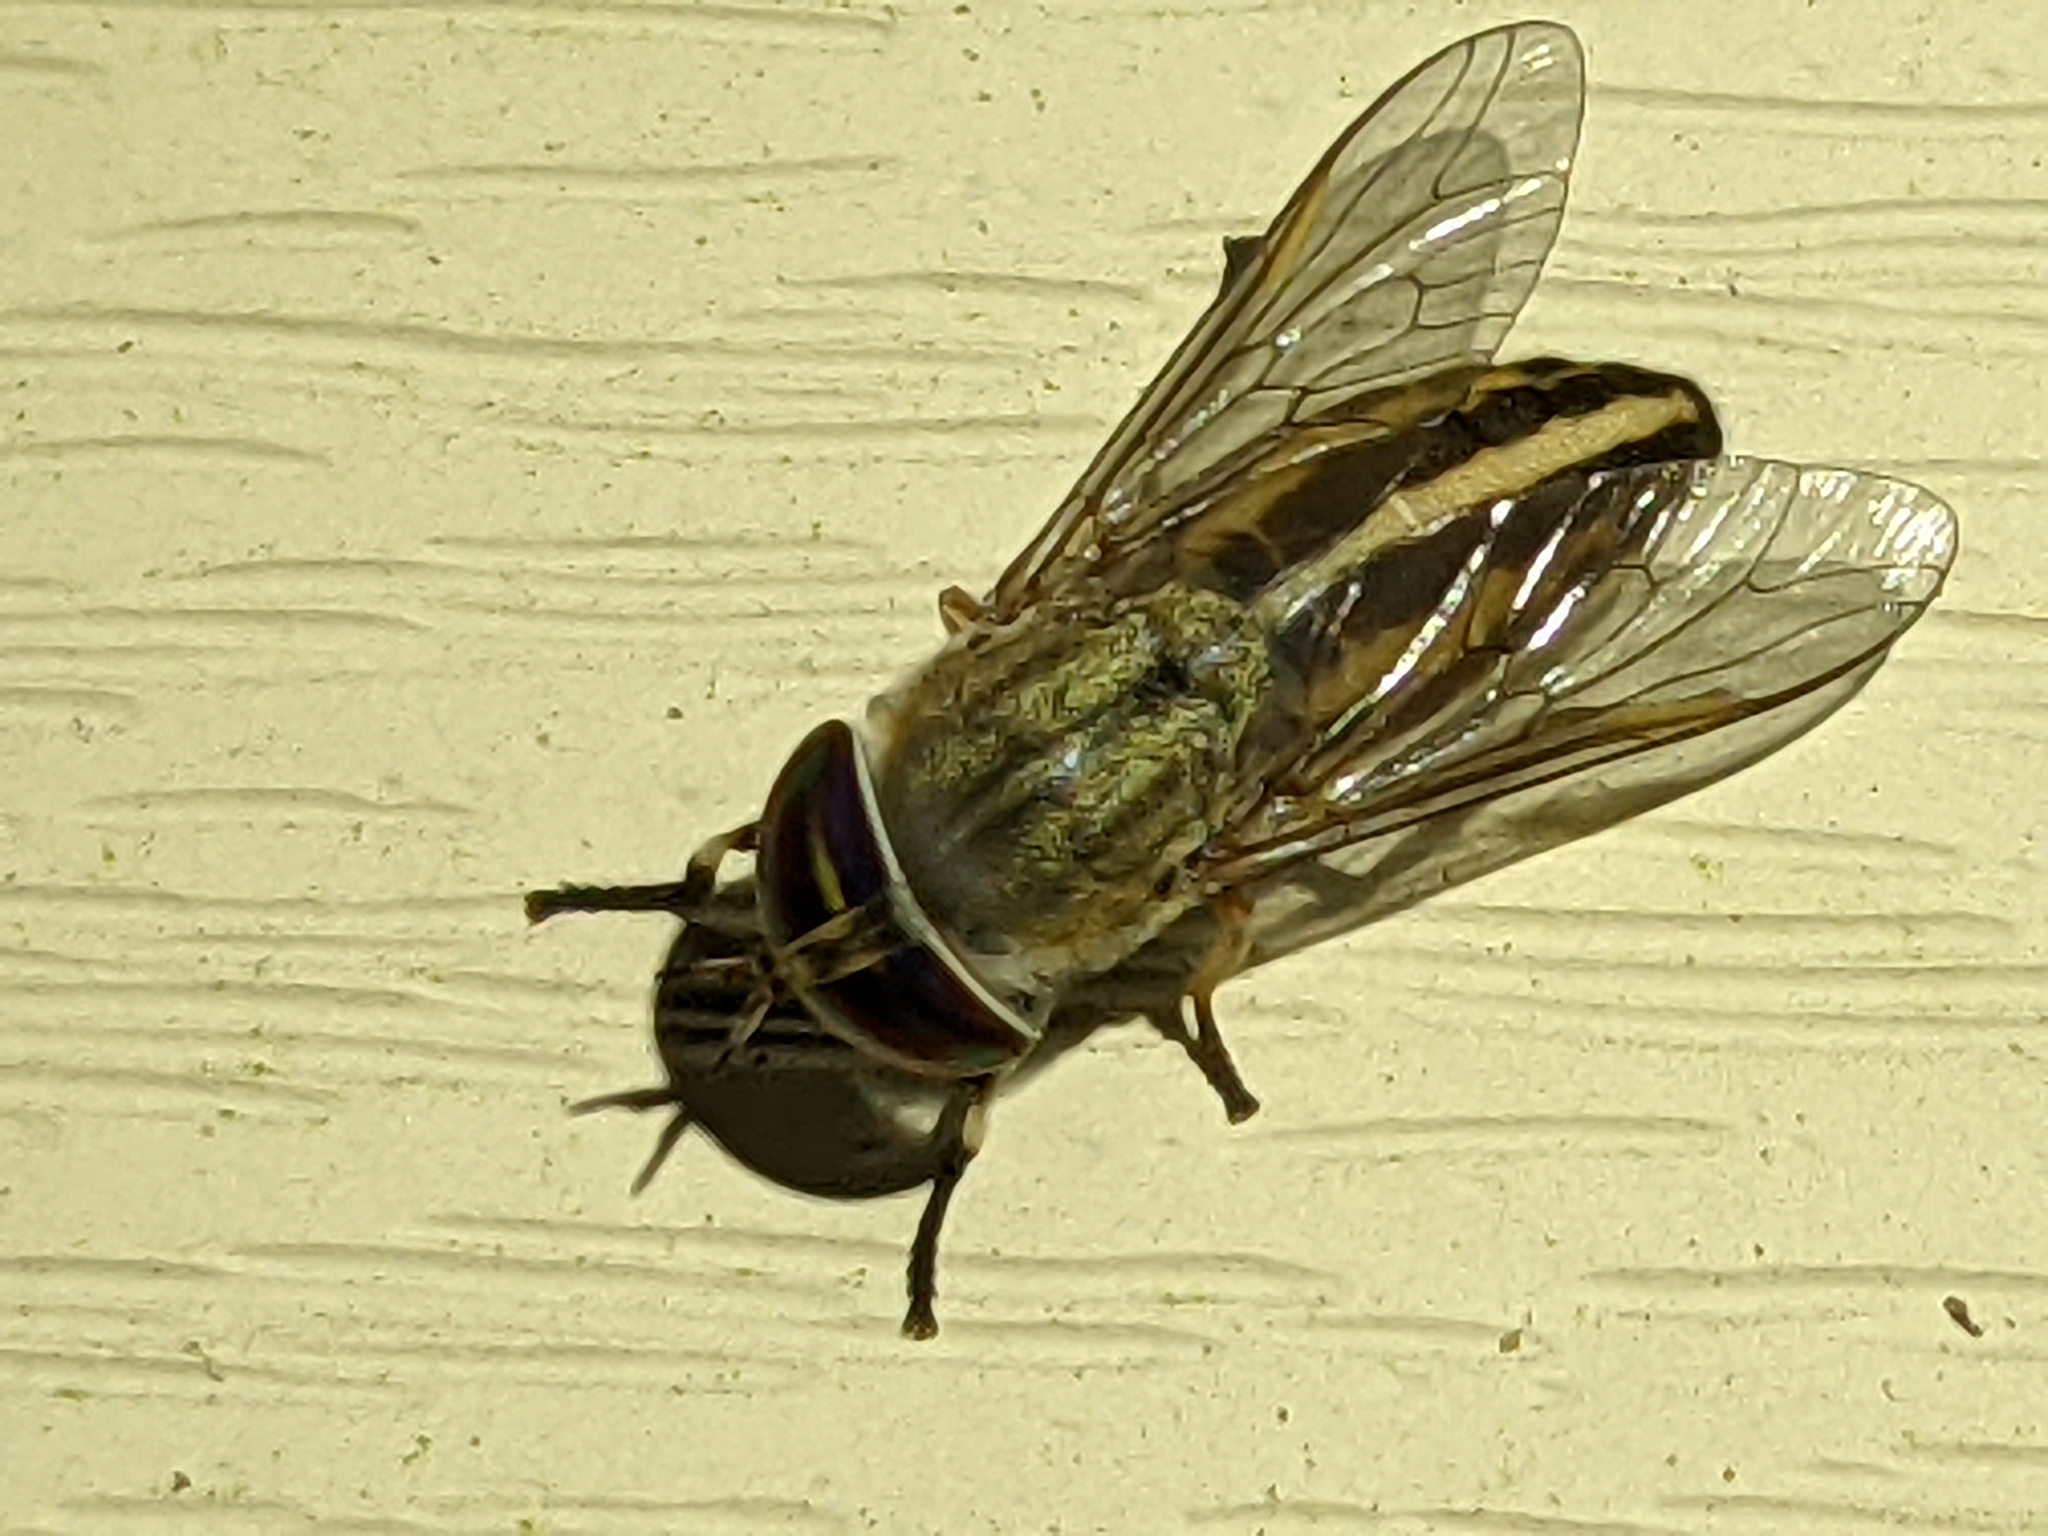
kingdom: Animalia
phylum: Arthropoda
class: Insecta
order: Diptera
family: Tabanidae
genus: Tabanus
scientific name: Tabanus lineola
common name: Striped horse fly
